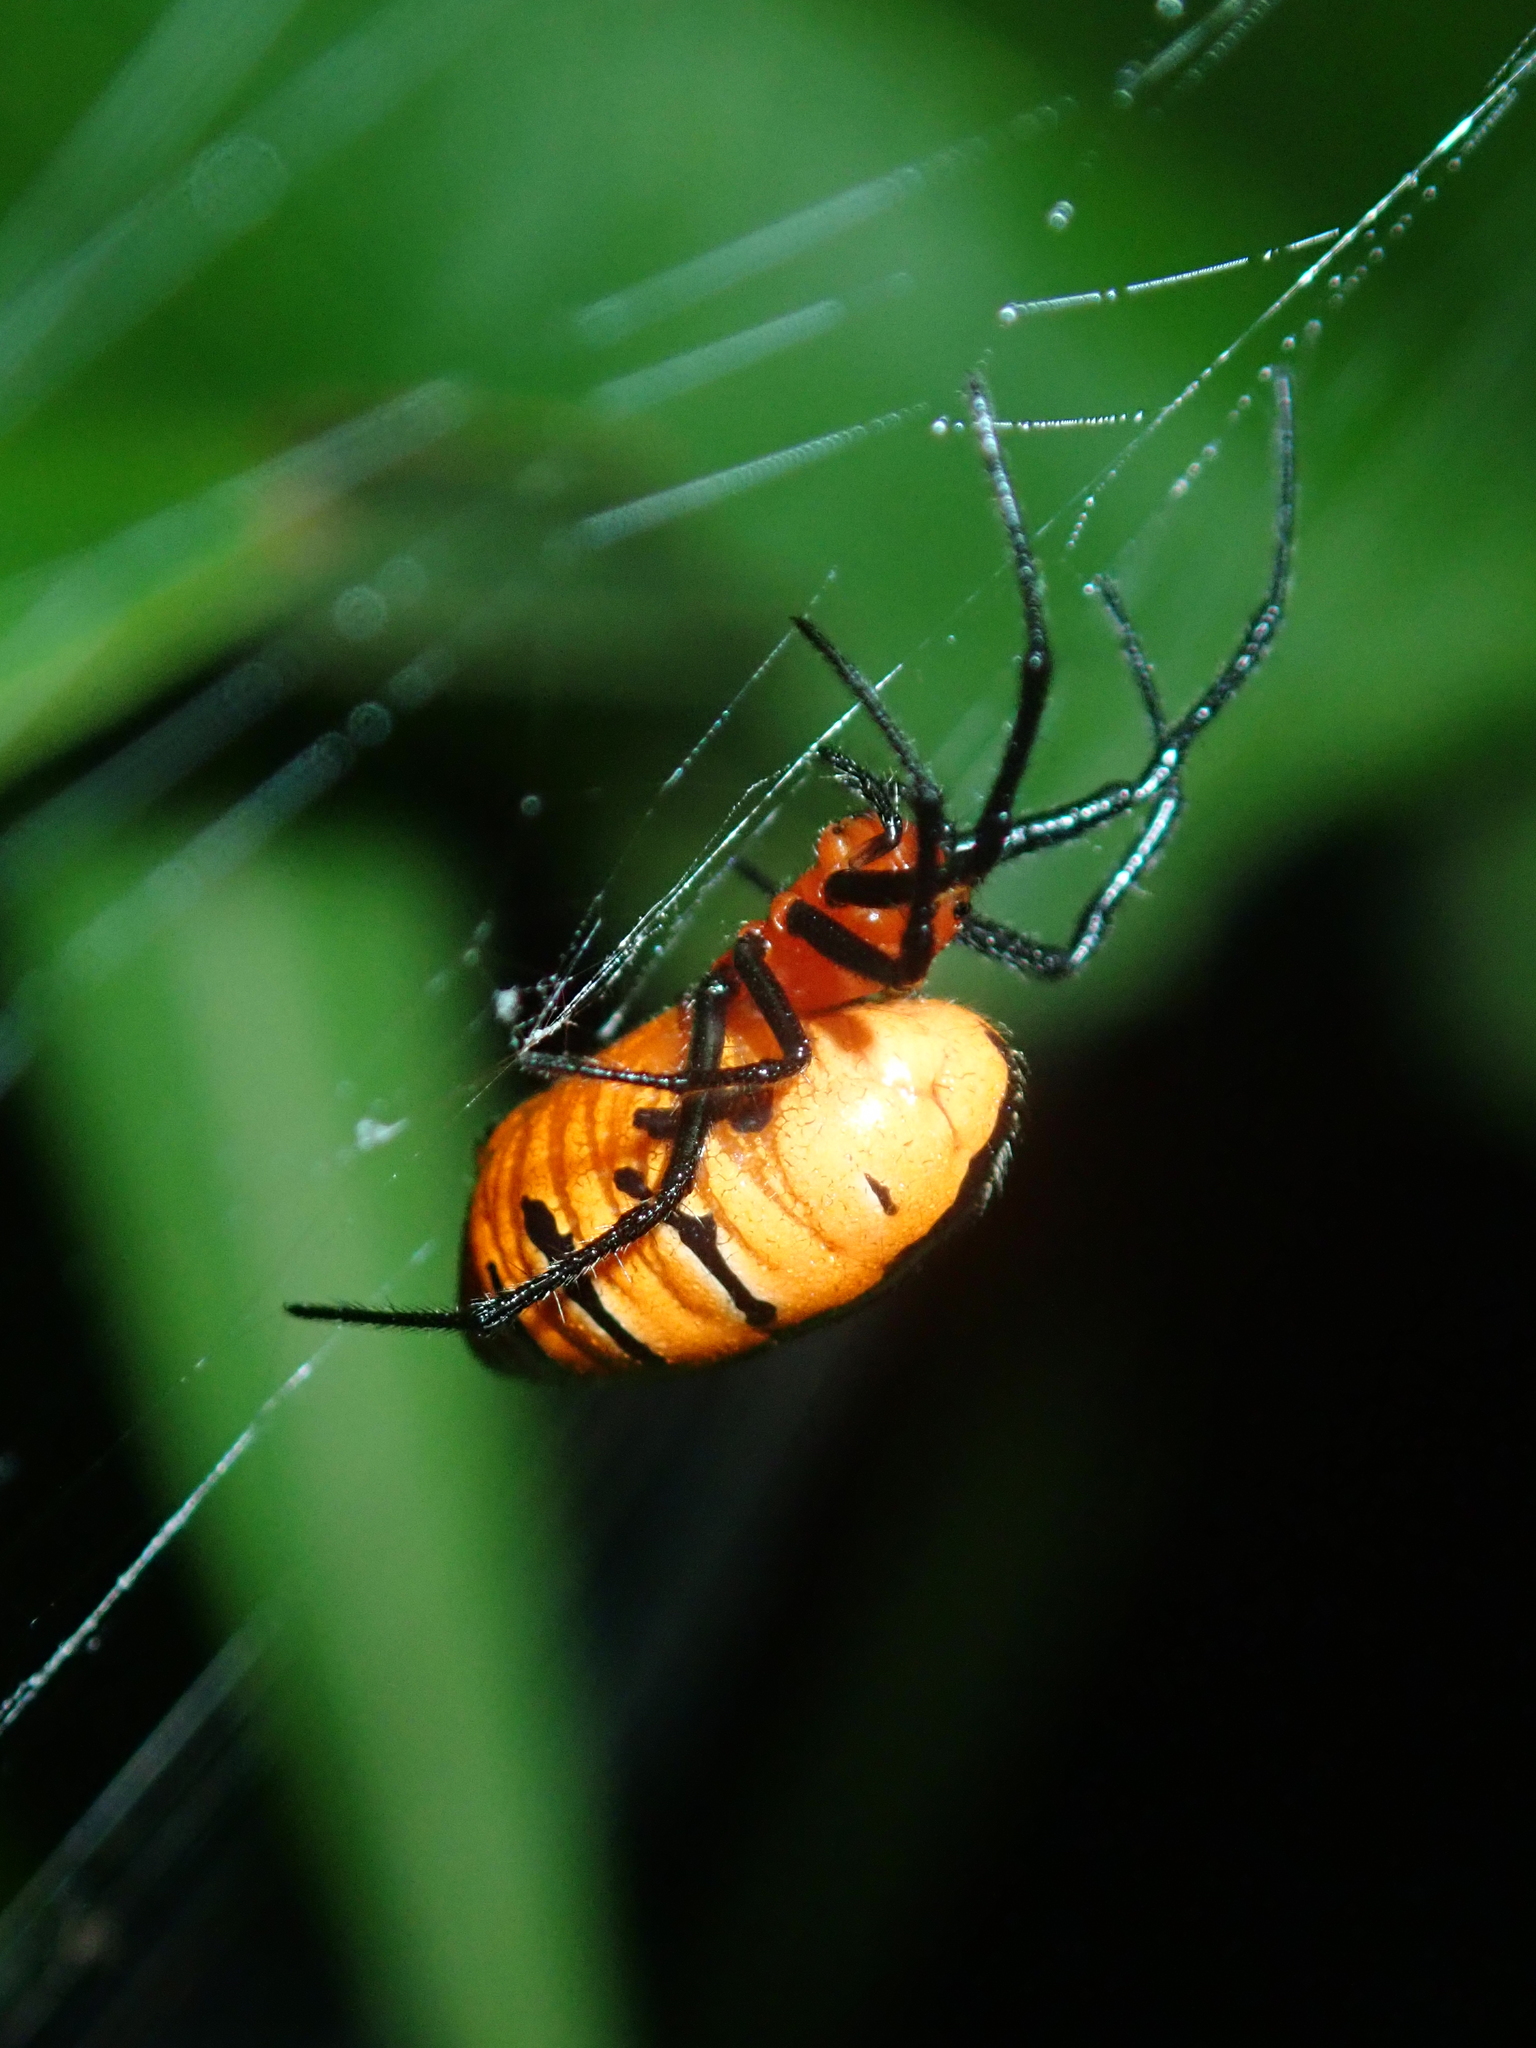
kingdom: Animalia
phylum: Arthropoda
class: Arachnida
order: Araneae
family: Araneidae
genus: Alpaida
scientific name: Alpaida latro
